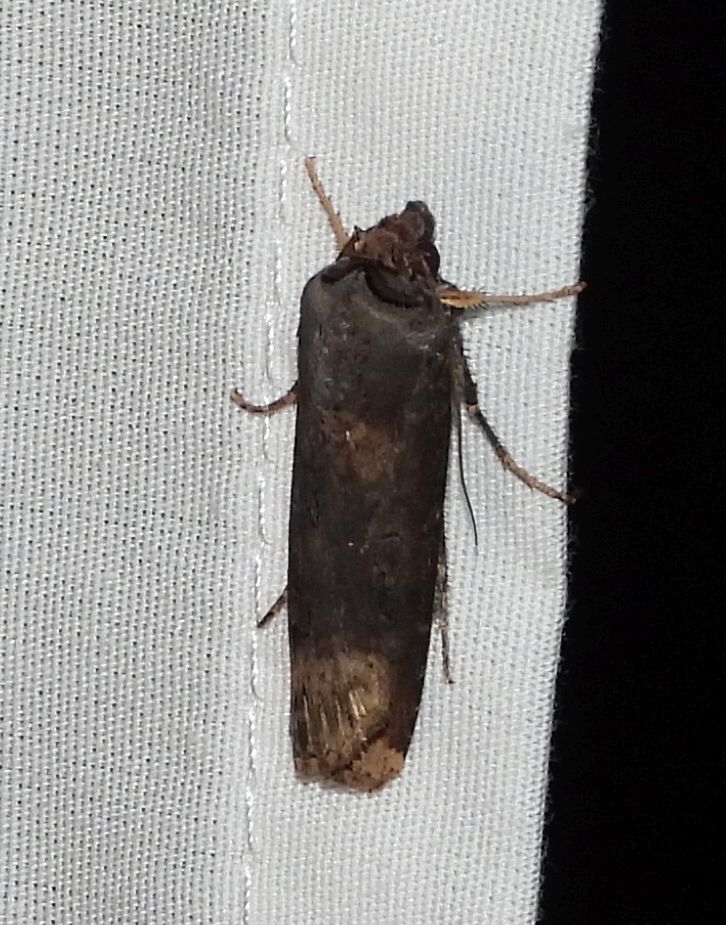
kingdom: Animalia
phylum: Arthropoda
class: Insecta
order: Lepidoptera
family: Noctuidae
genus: Agrotis
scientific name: Agrotis ipsilon
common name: Dark sword-grass
